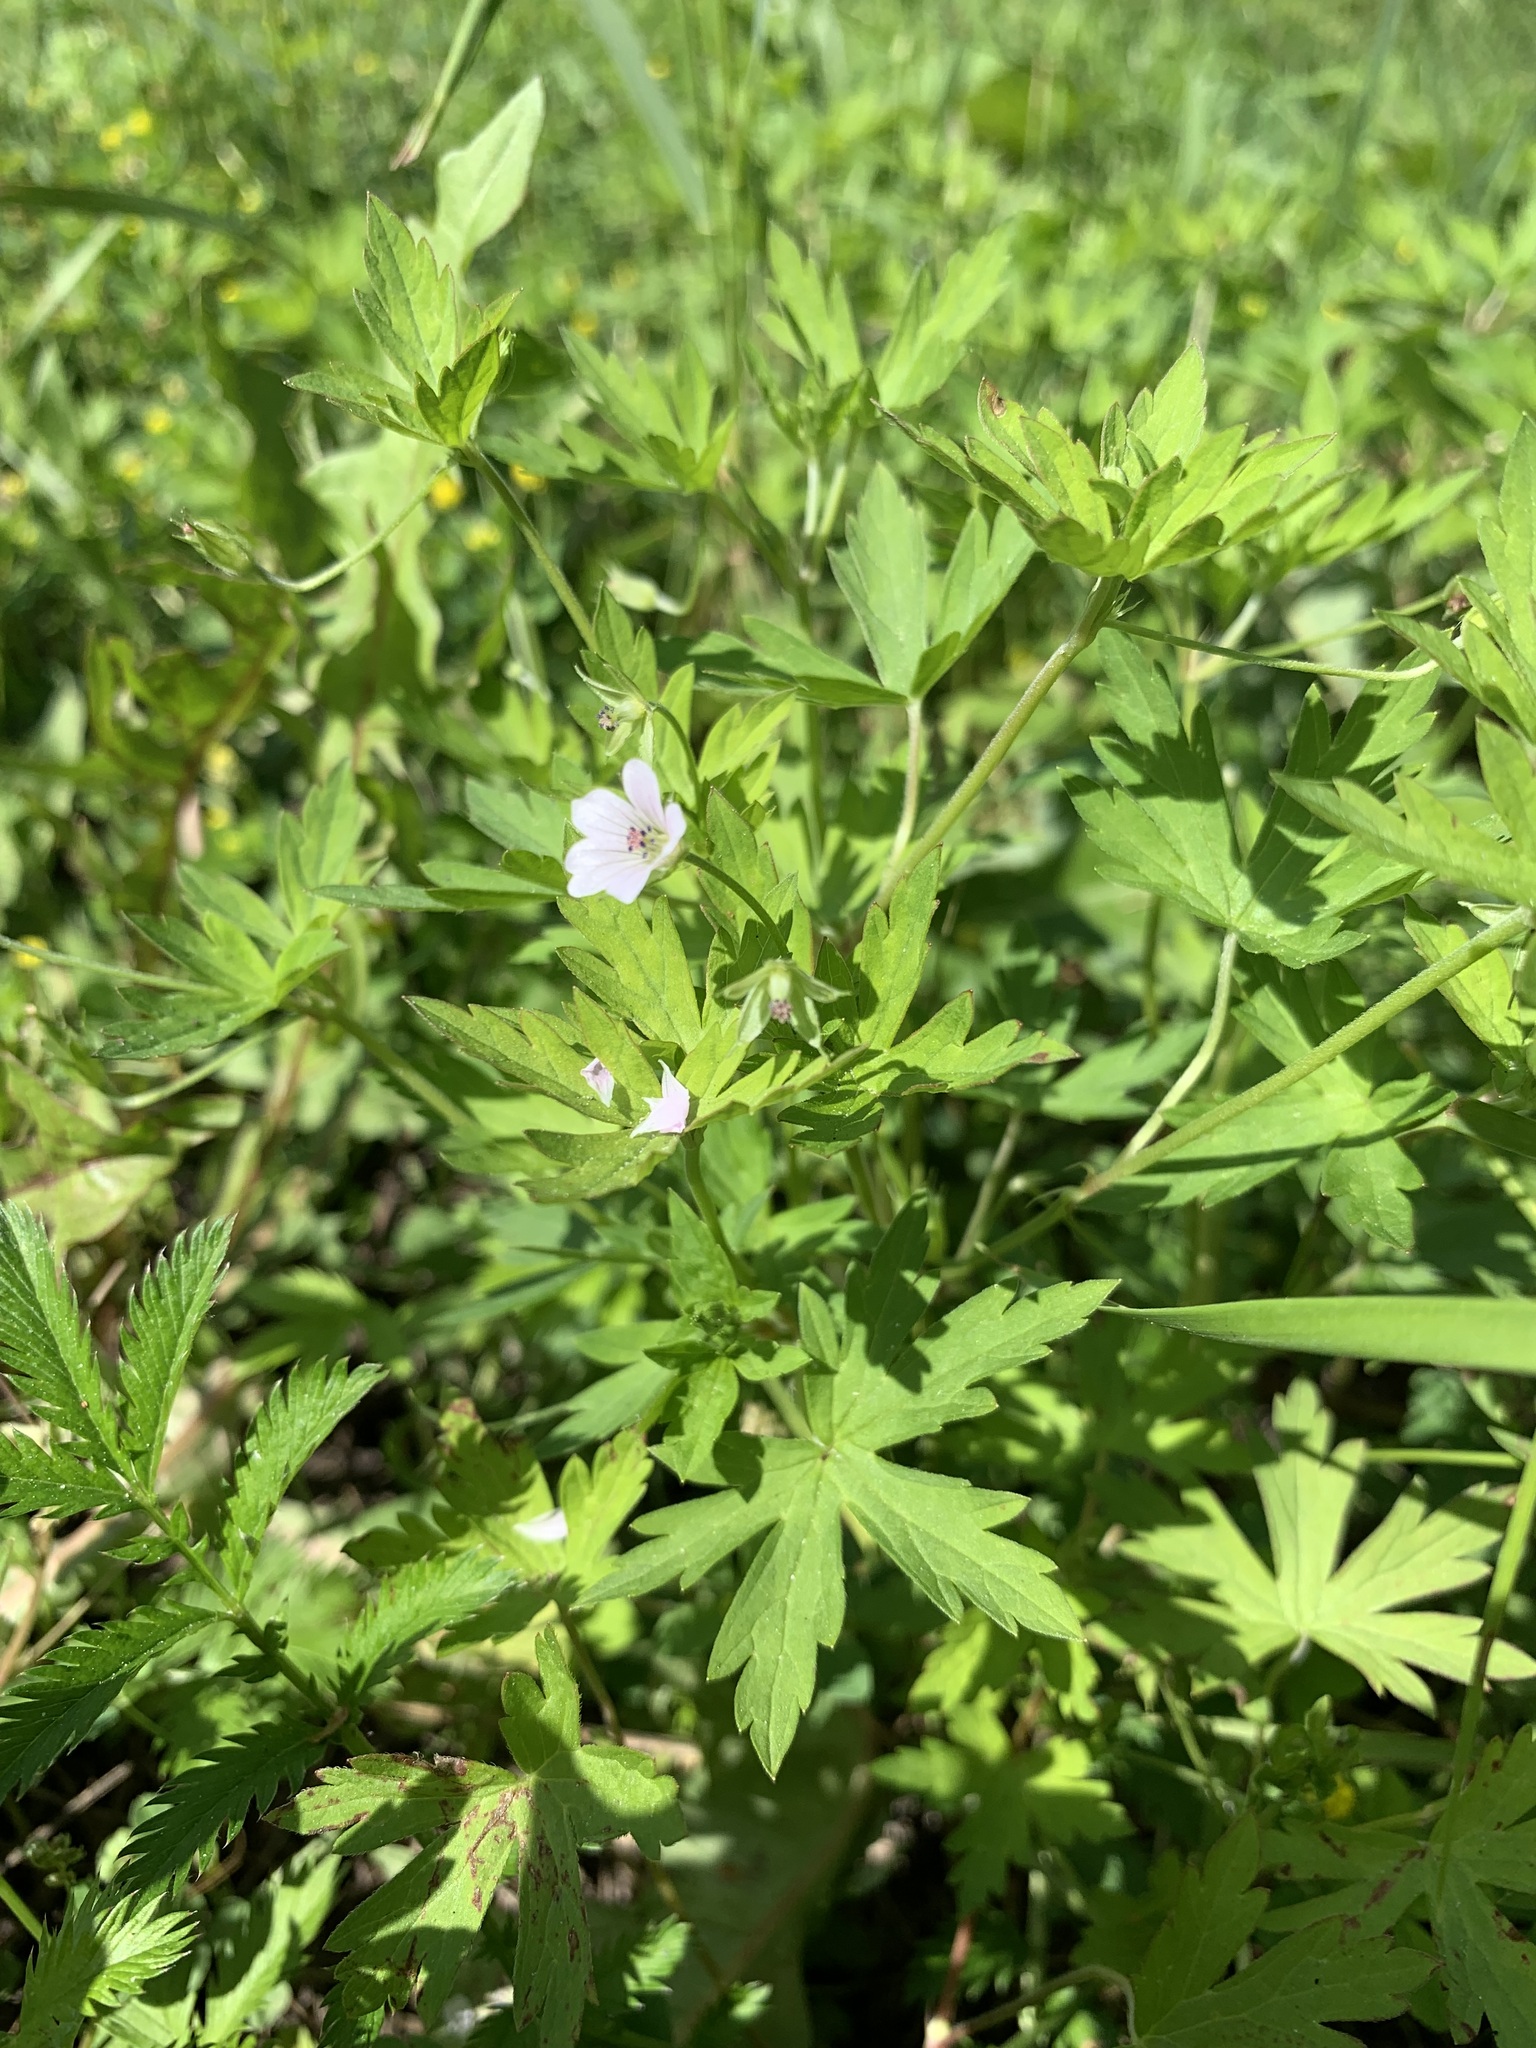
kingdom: Plantae
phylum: Tracheophyta
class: Magnoliopsida
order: Geraniales
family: Geraniaceae
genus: Geranium
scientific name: Geranium sibiricum
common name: Siberian crane's-bill
